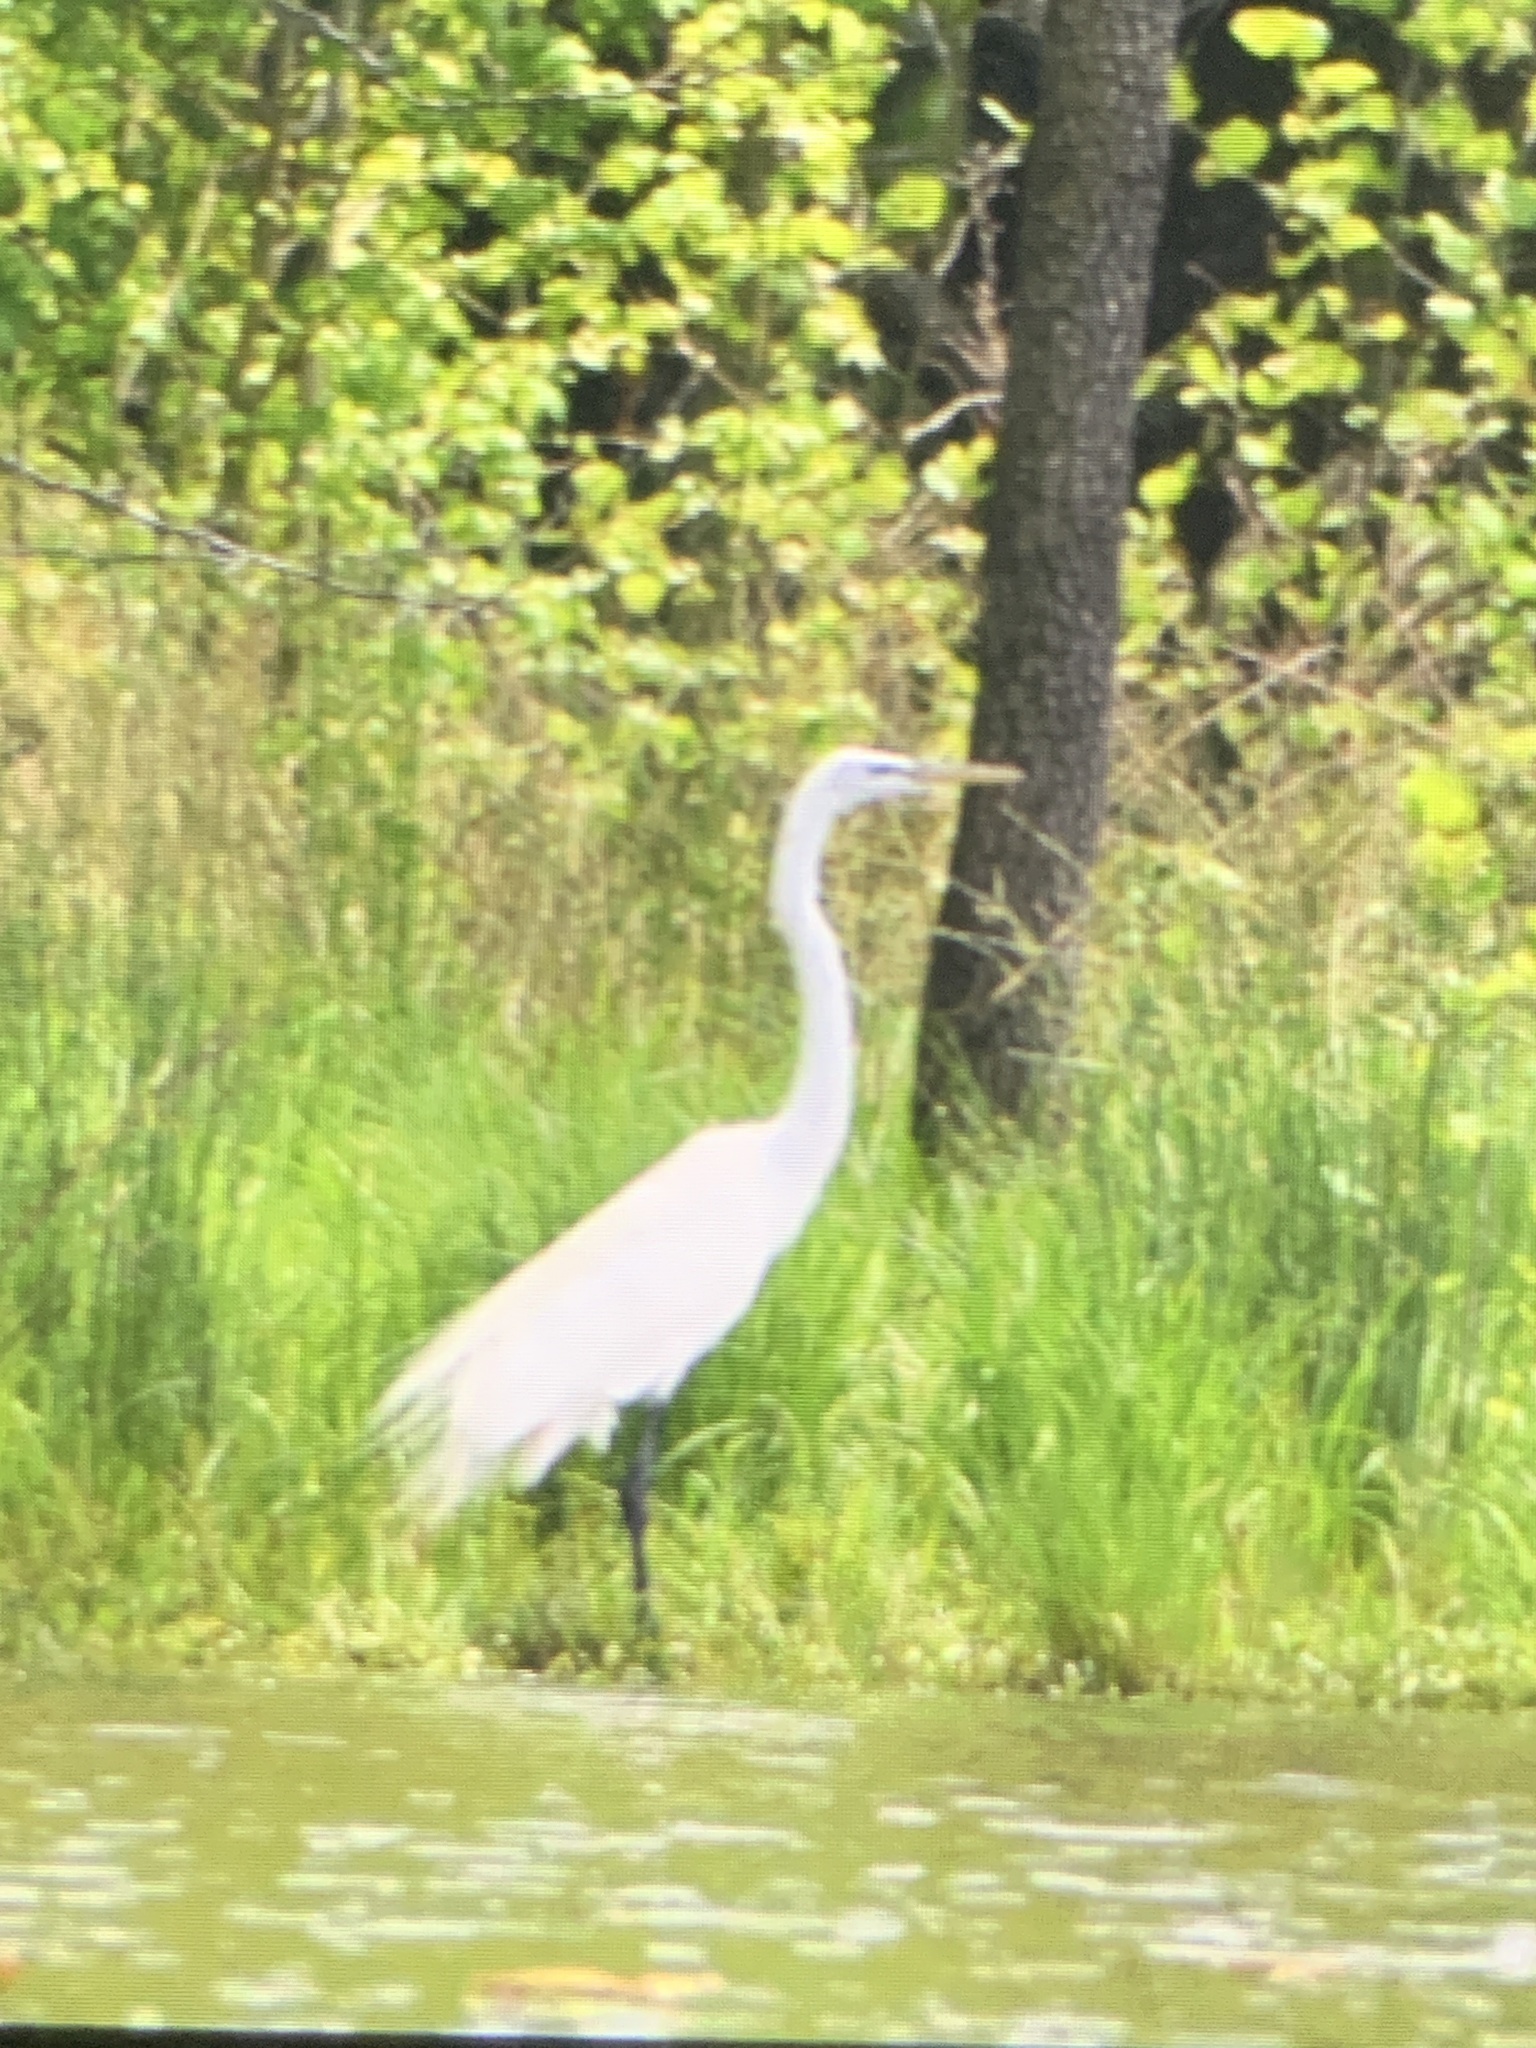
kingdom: Animalia
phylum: Chordata
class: Aves
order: Pelecaniformes
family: Ardeidae
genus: Ardea
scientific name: Ardea alba
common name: Great egret
